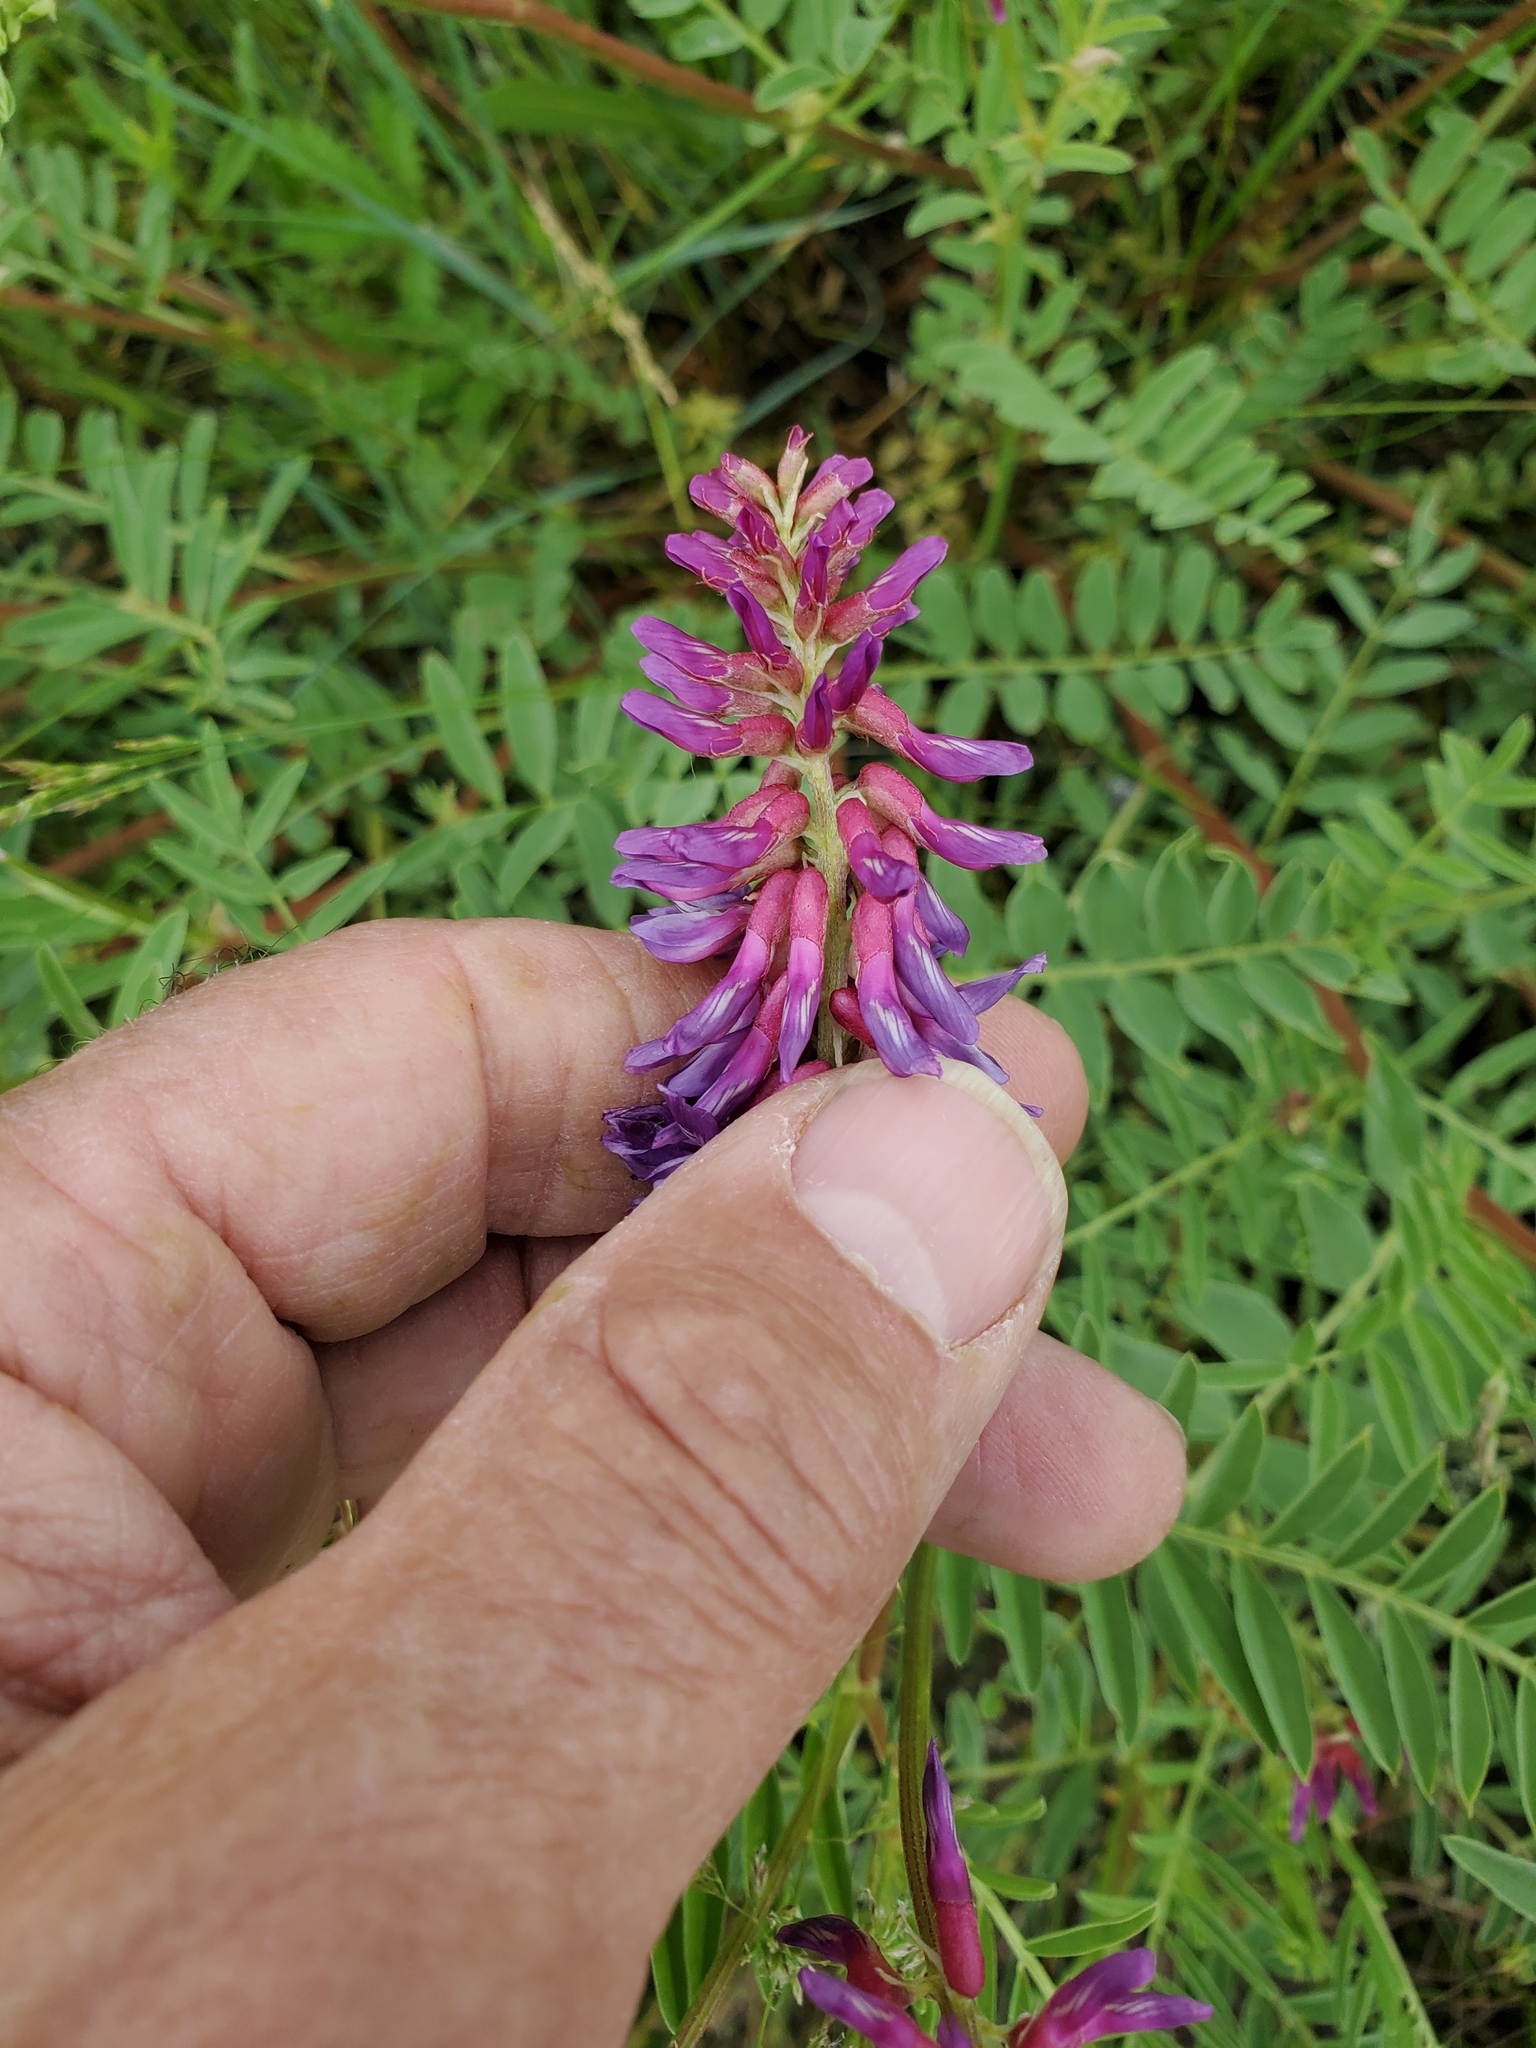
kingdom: Plantae
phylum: Tracheophyta
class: Magnoliopsida
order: Fabales
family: Fabaceae
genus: Astragalus
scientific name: Astragalus bisulcatus
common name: Two-groove milk-vetch
